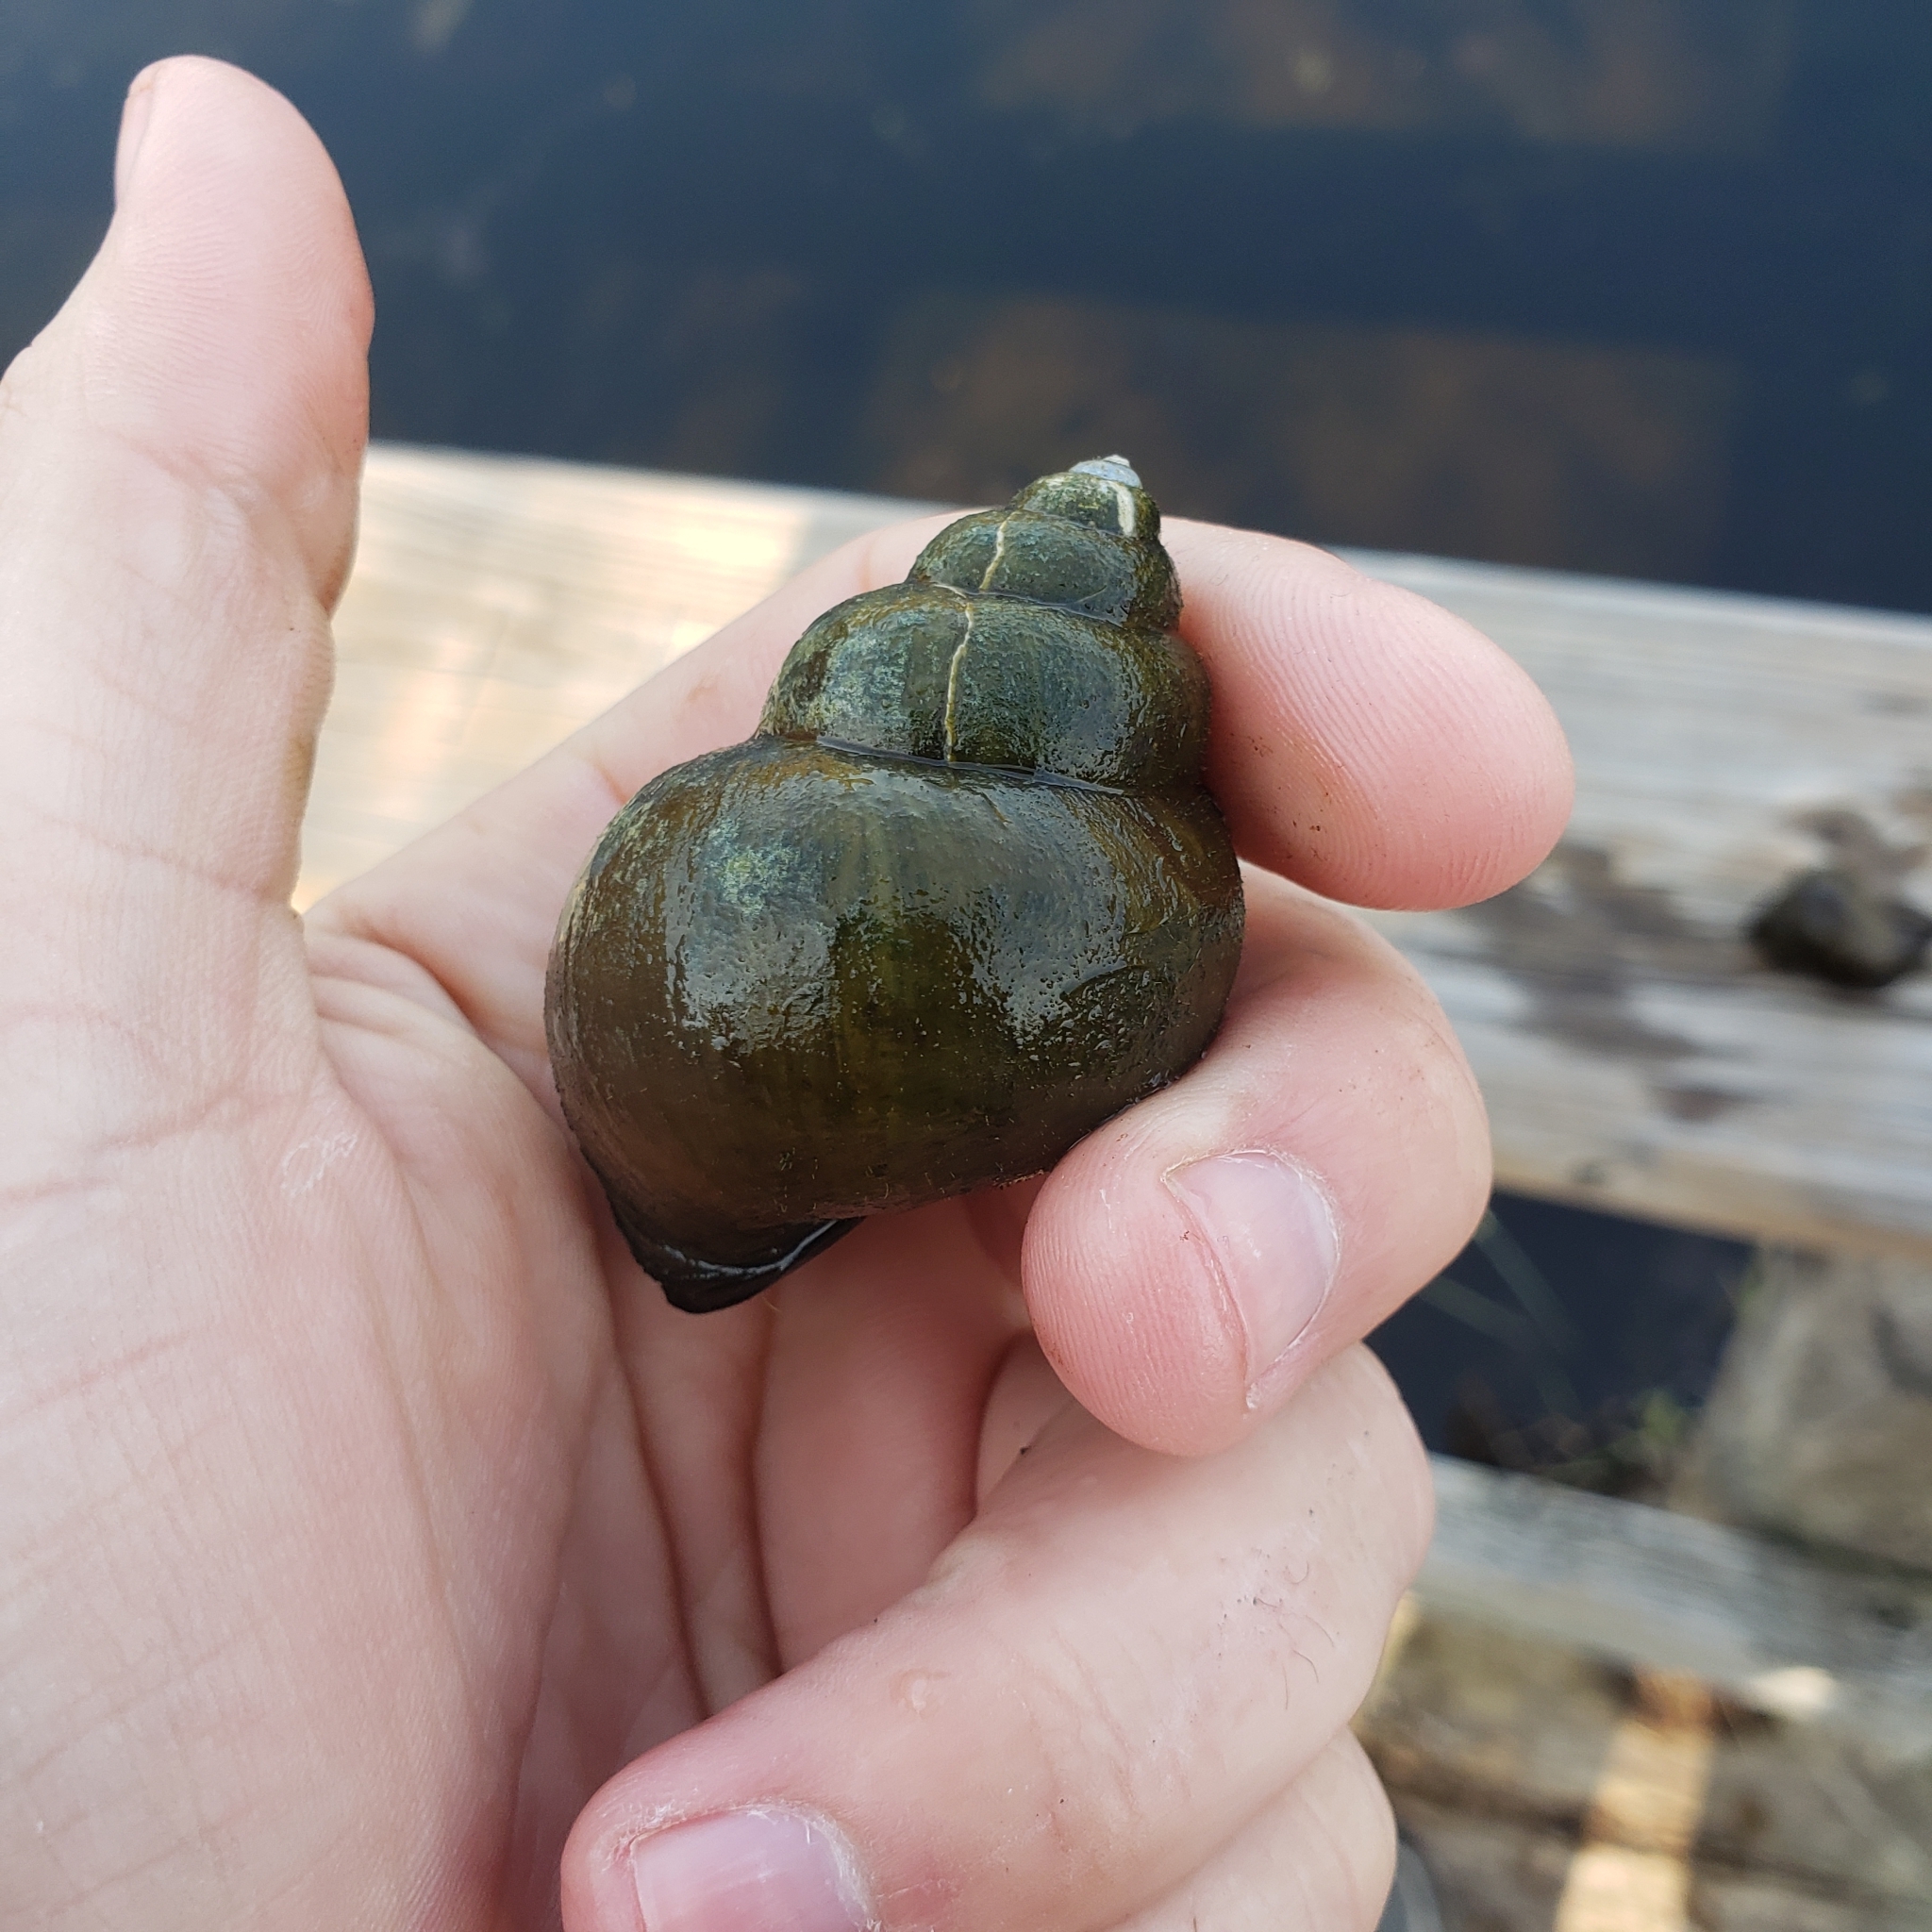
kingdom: Animalia
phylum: Mollusca
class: Gastropoda
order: Architaenioglossa
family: Viviparidae
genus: Cipangopaludina
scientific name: Cipangopaludina chinensis
